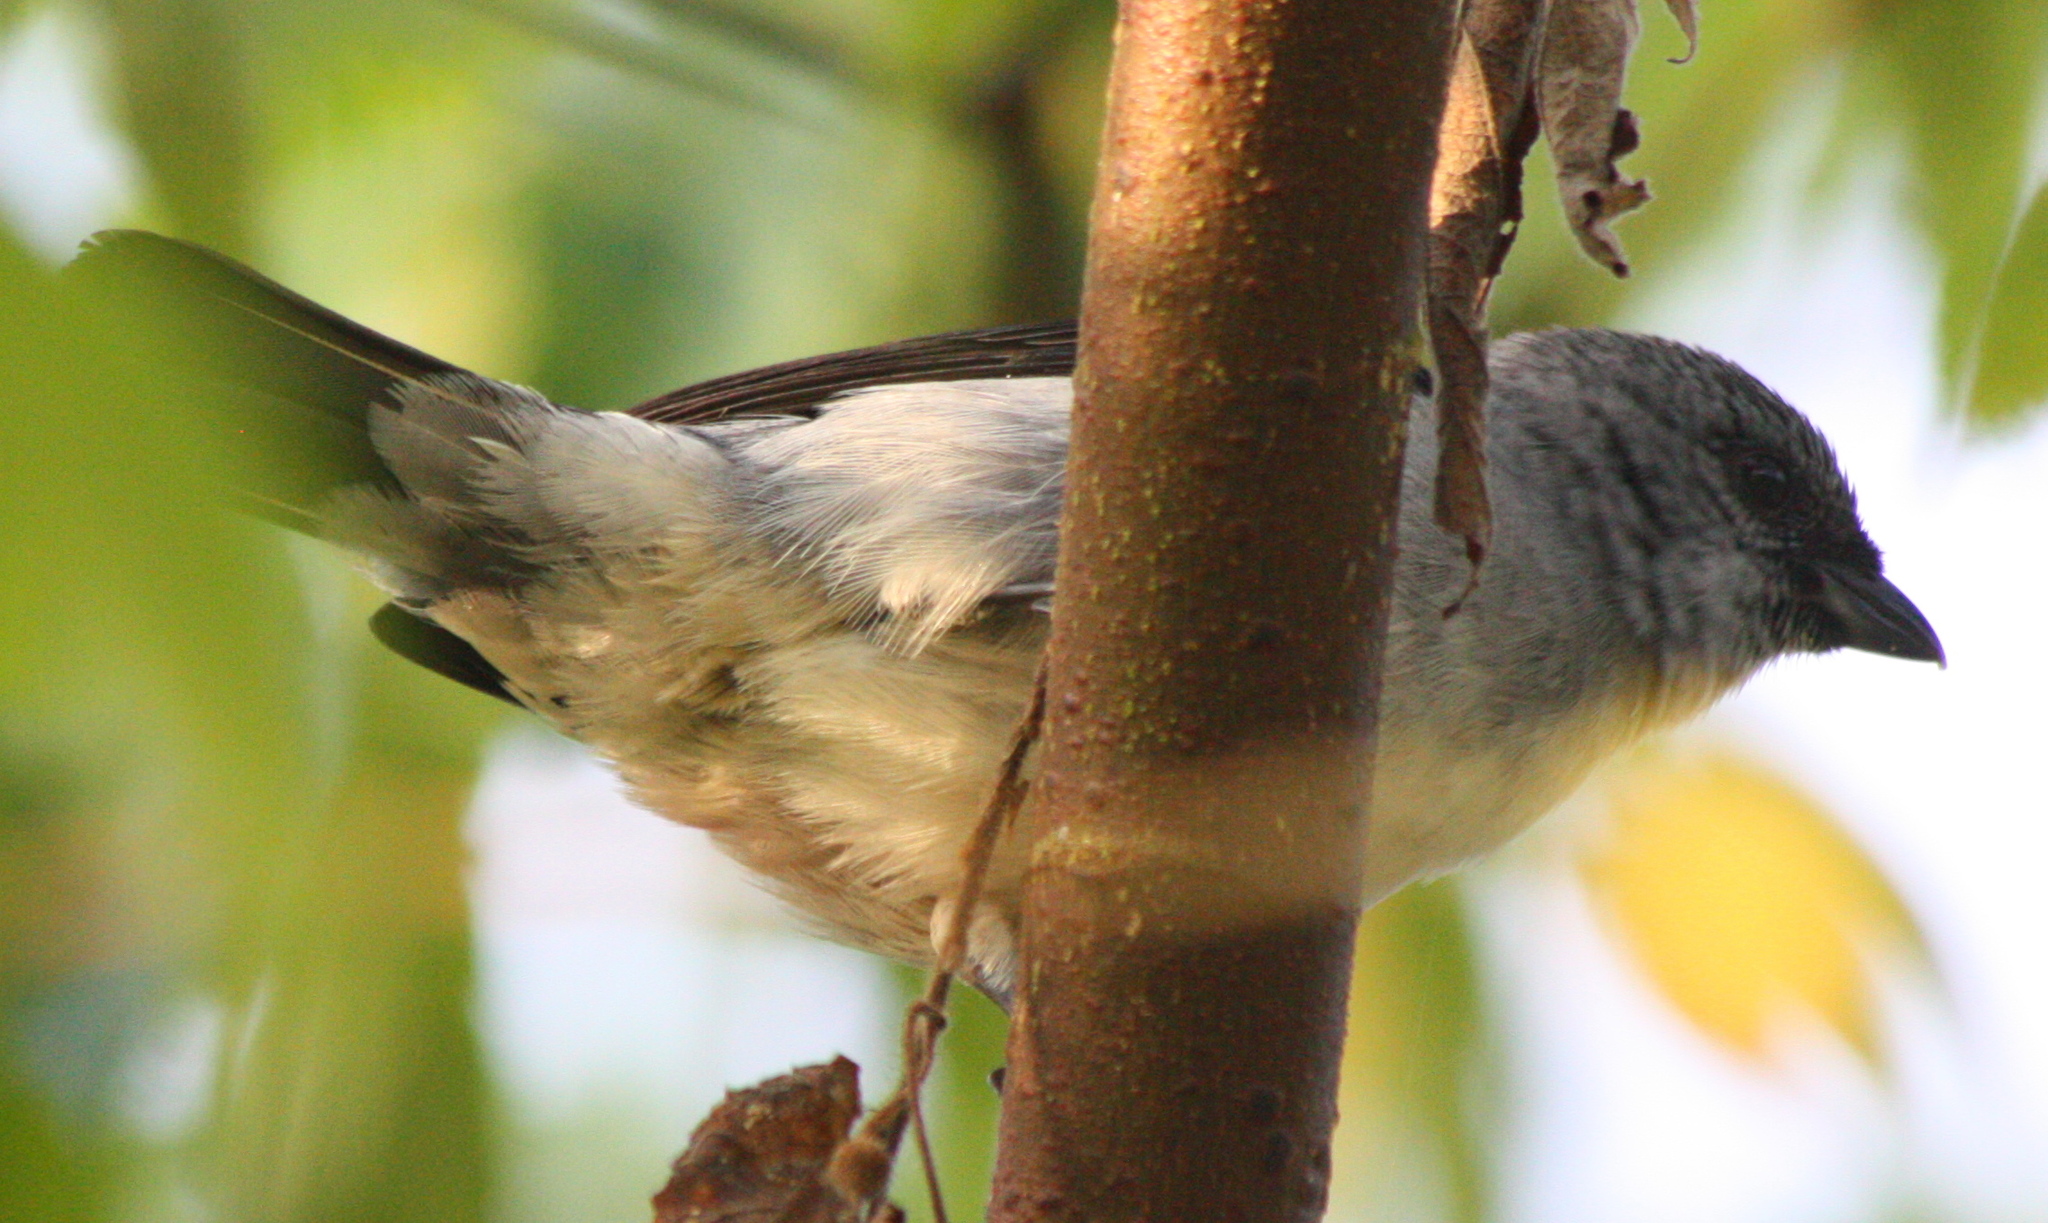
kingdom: Animalia
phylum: Chordata
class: Aves
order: Passeriformes
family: Thraupidae
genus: Tangara
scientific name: Tangara inornata
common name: Plain-colored tanager
